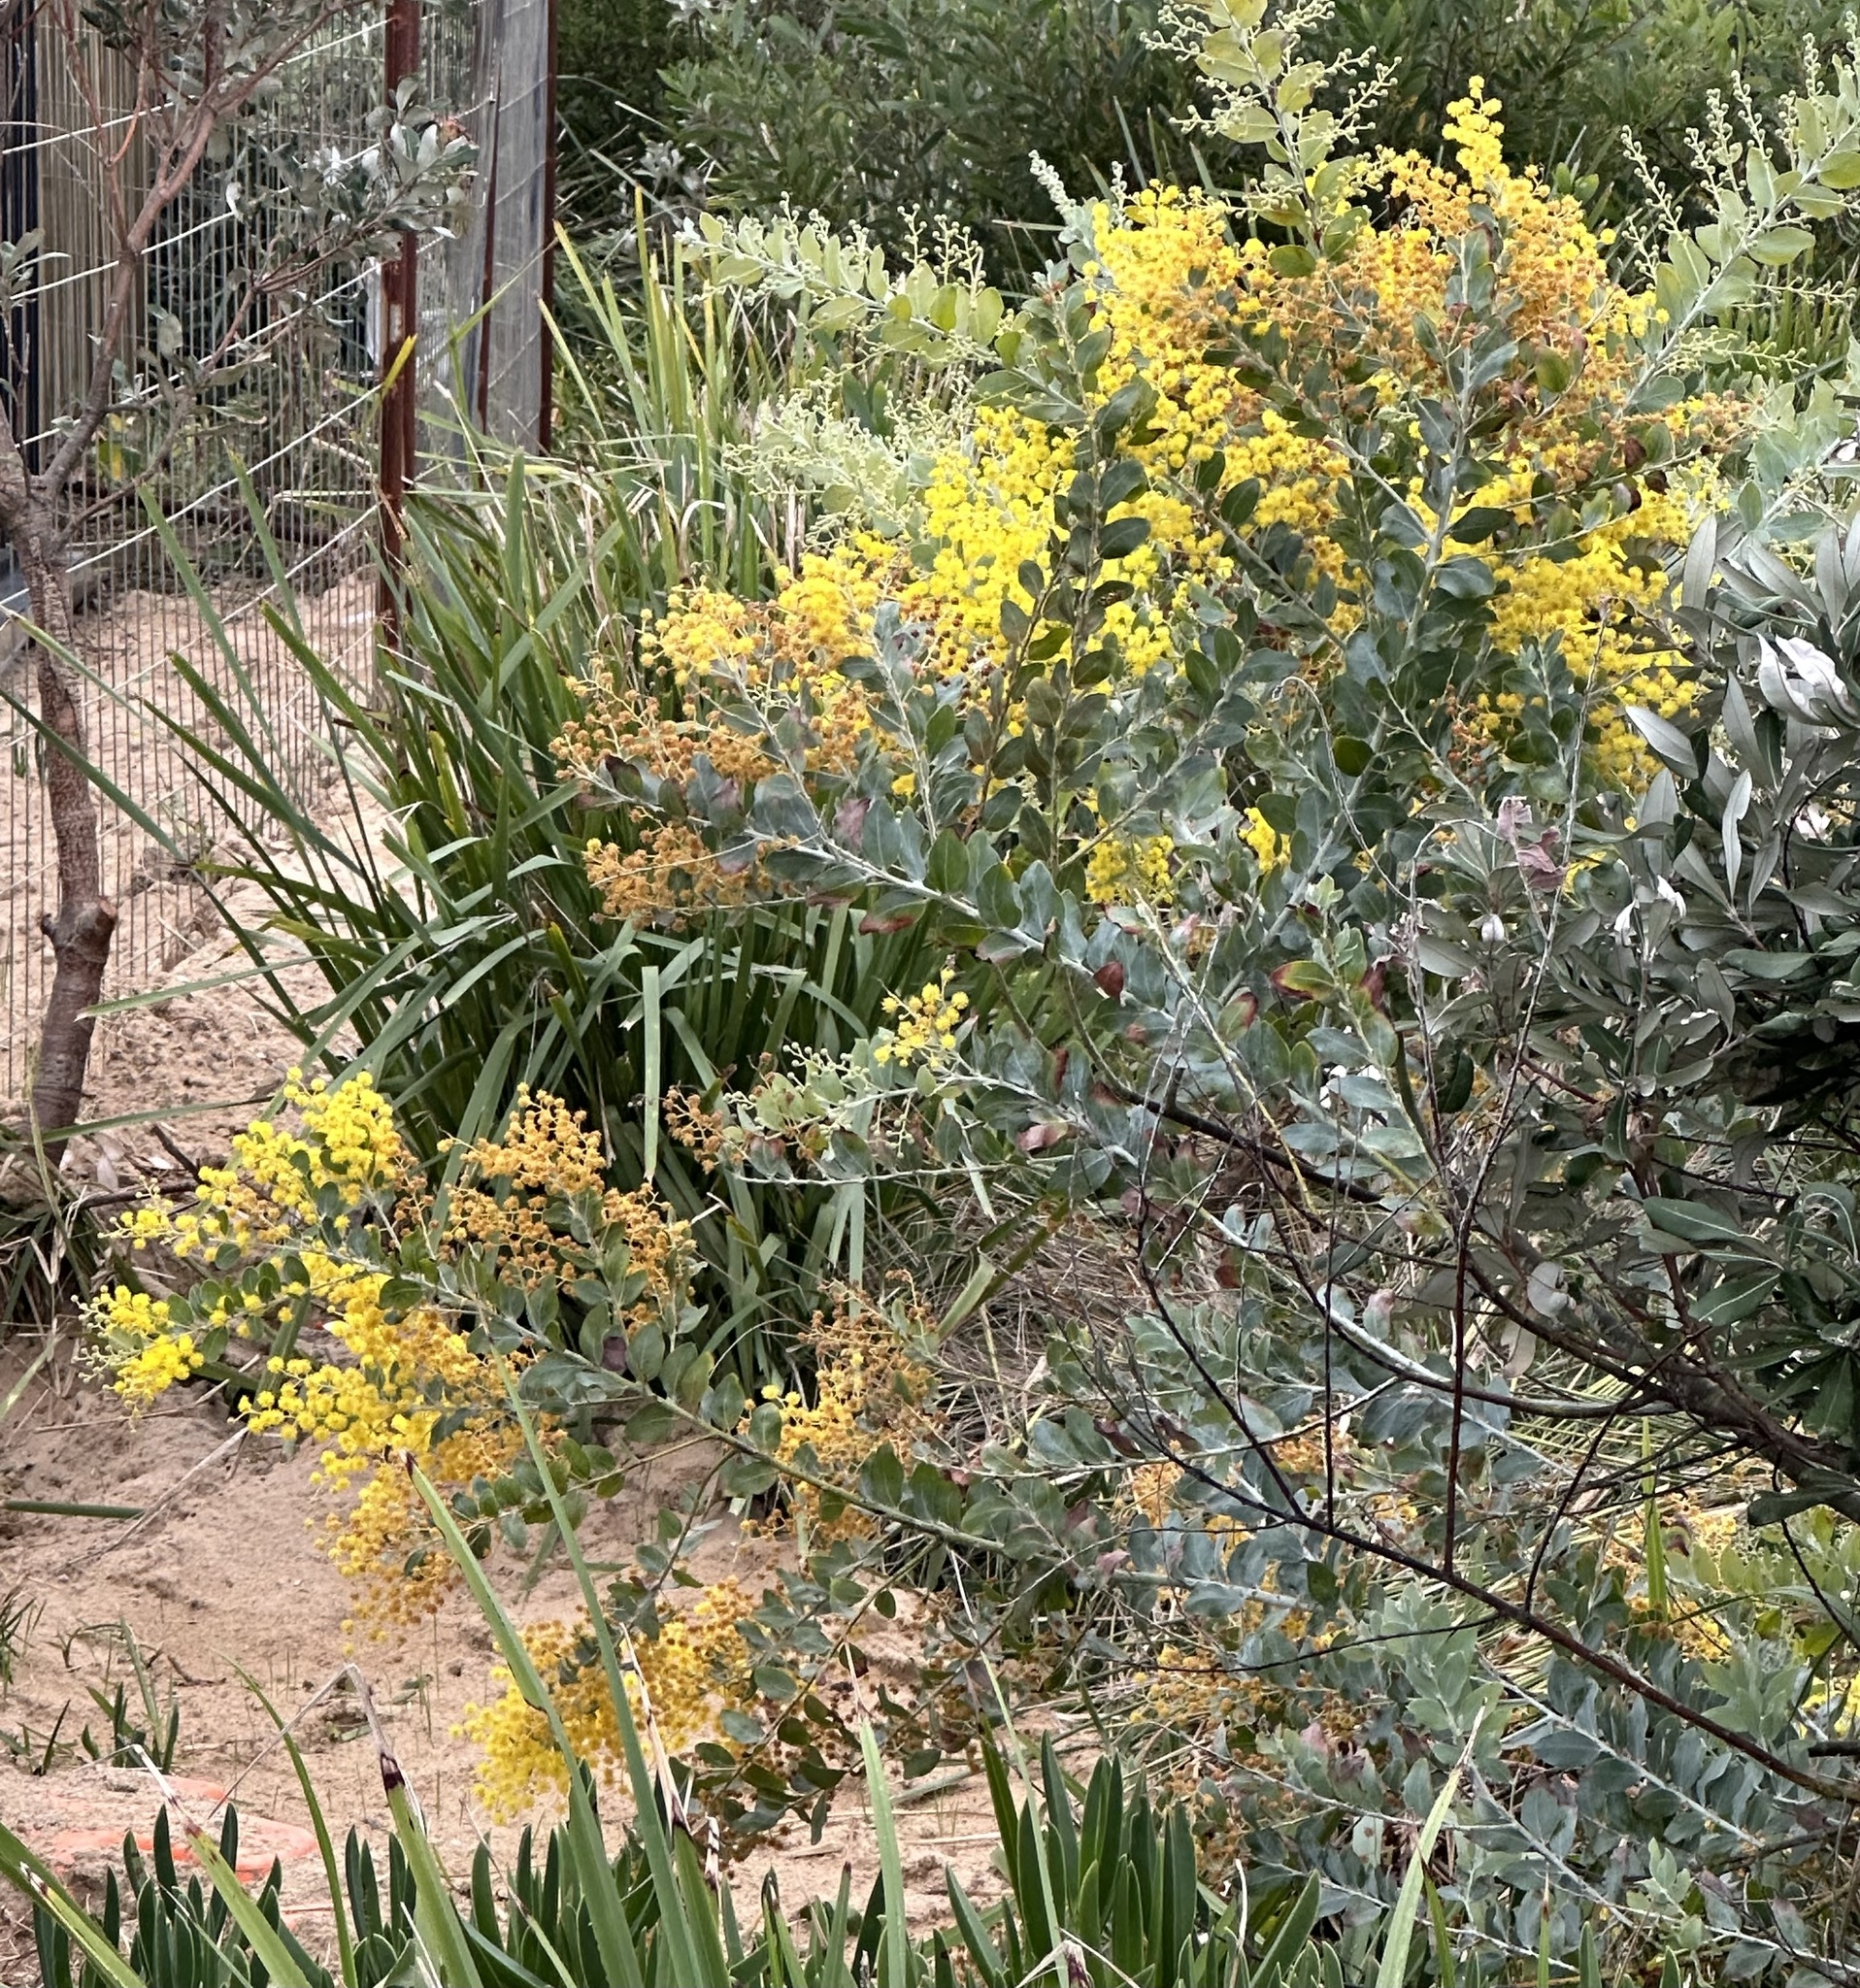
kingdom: Plantae
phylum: Tracheophyta
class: Magnoliopsida
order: Fabales
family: Fabaceae
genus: Acacia
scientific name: Acacia podalyriifolia
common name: Pearl wattle
